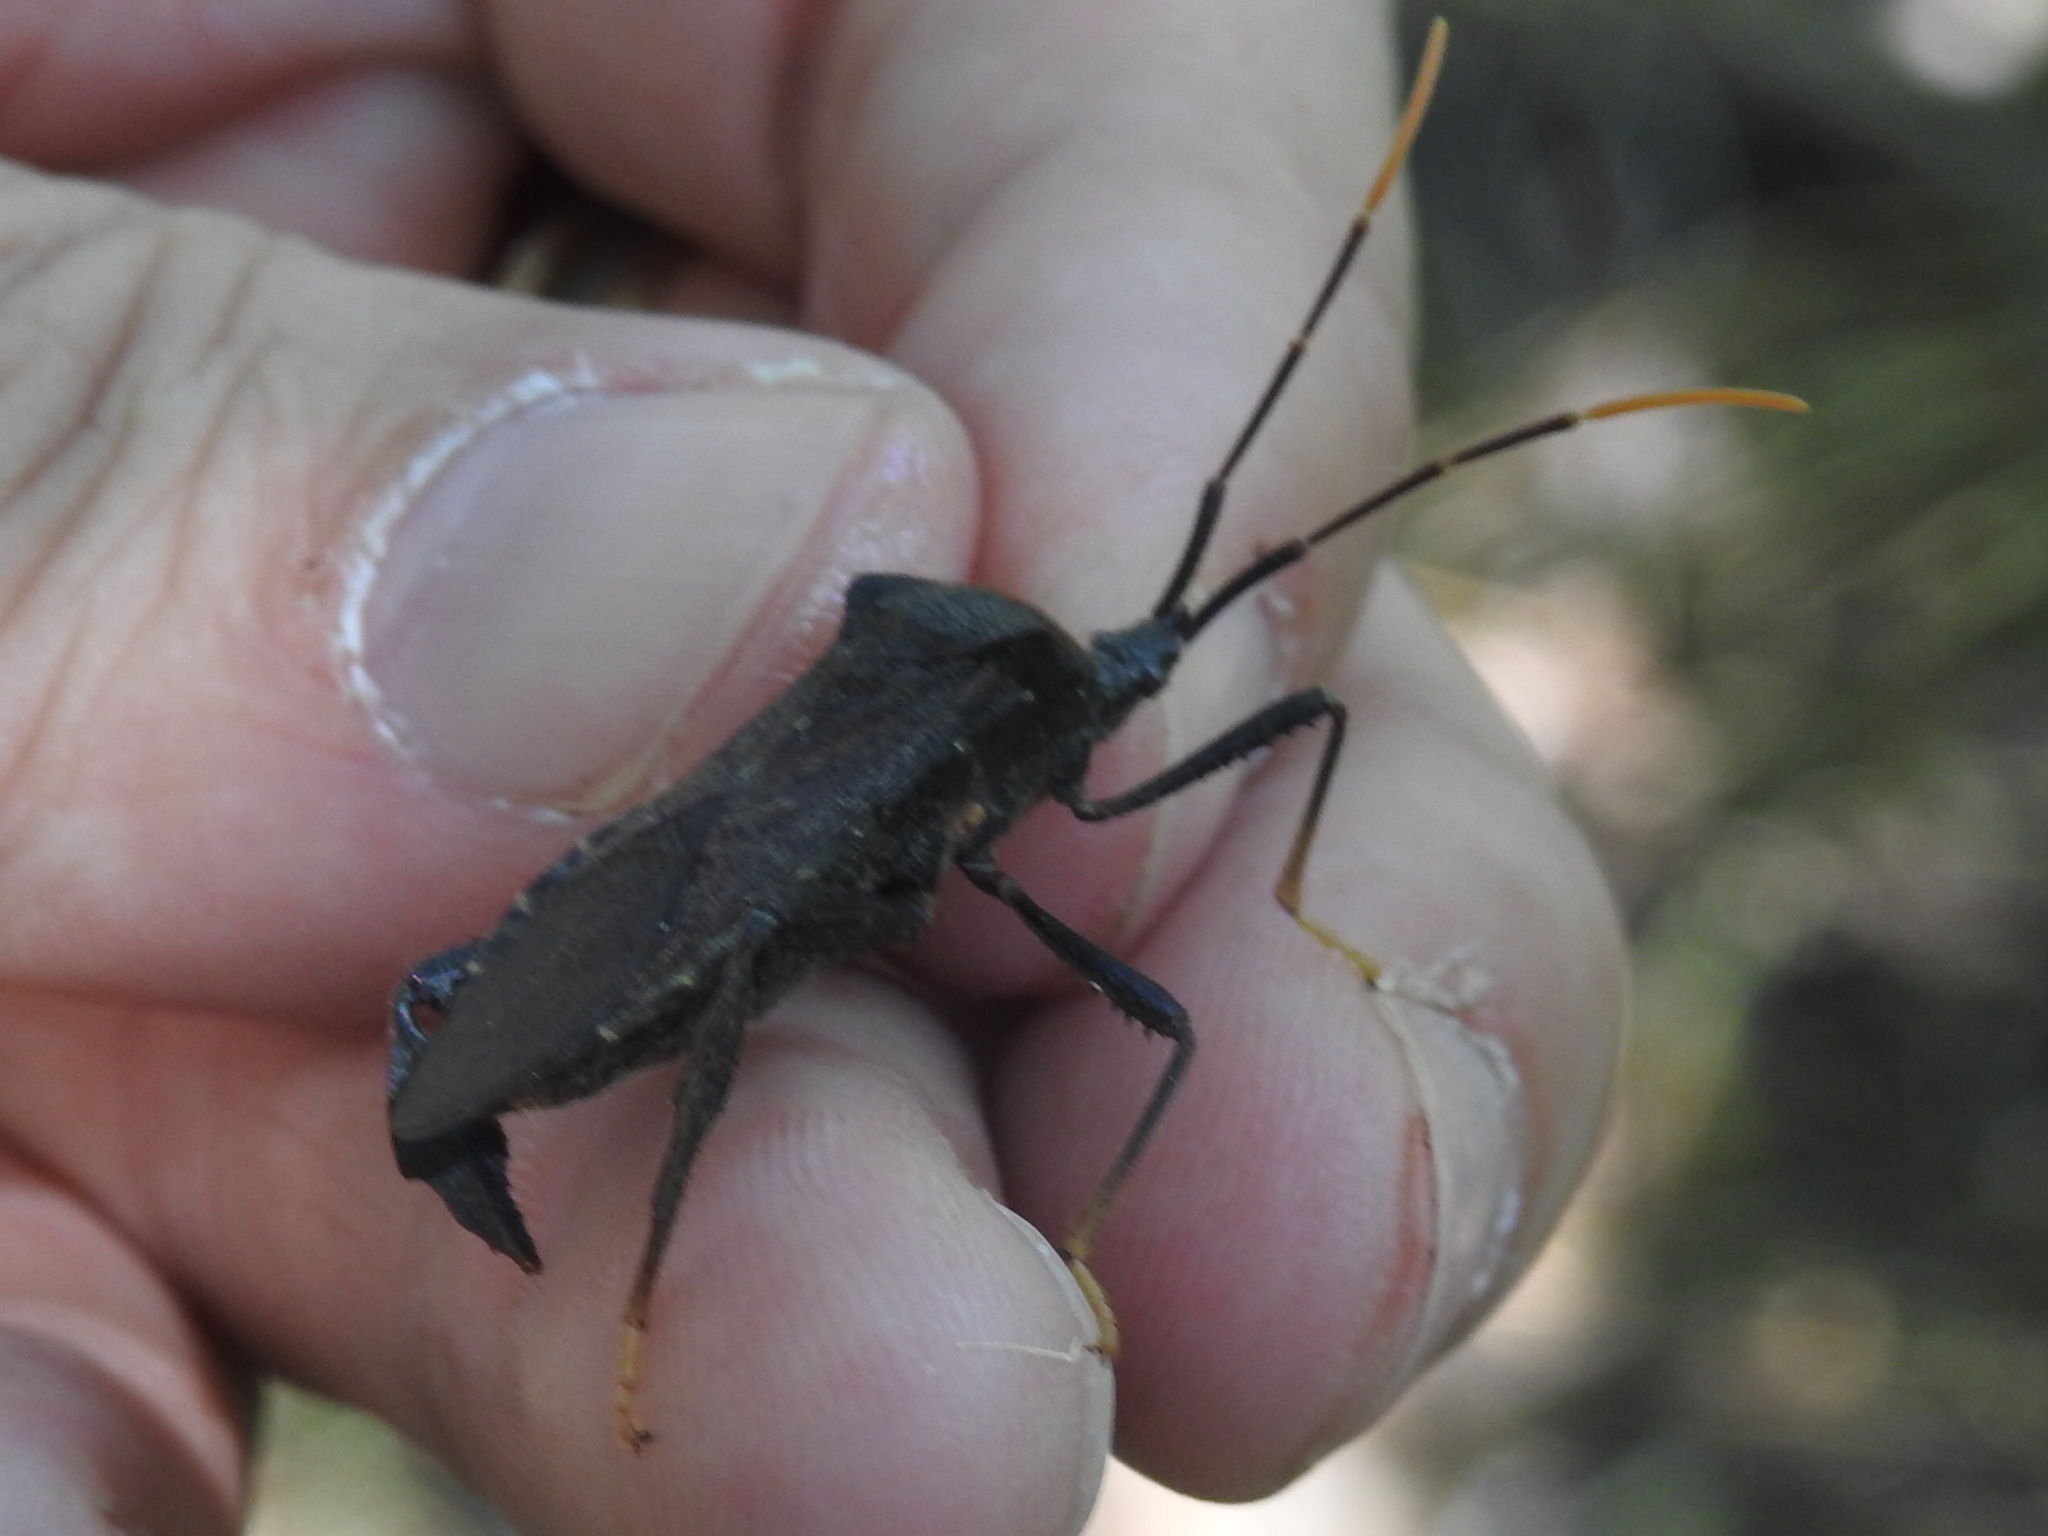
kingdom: Animalia
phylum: Arthropoda
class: Insecta
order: Hemiptera
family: Coreidae
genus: Acanthocephala
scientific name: Acanthocephala terminalis
